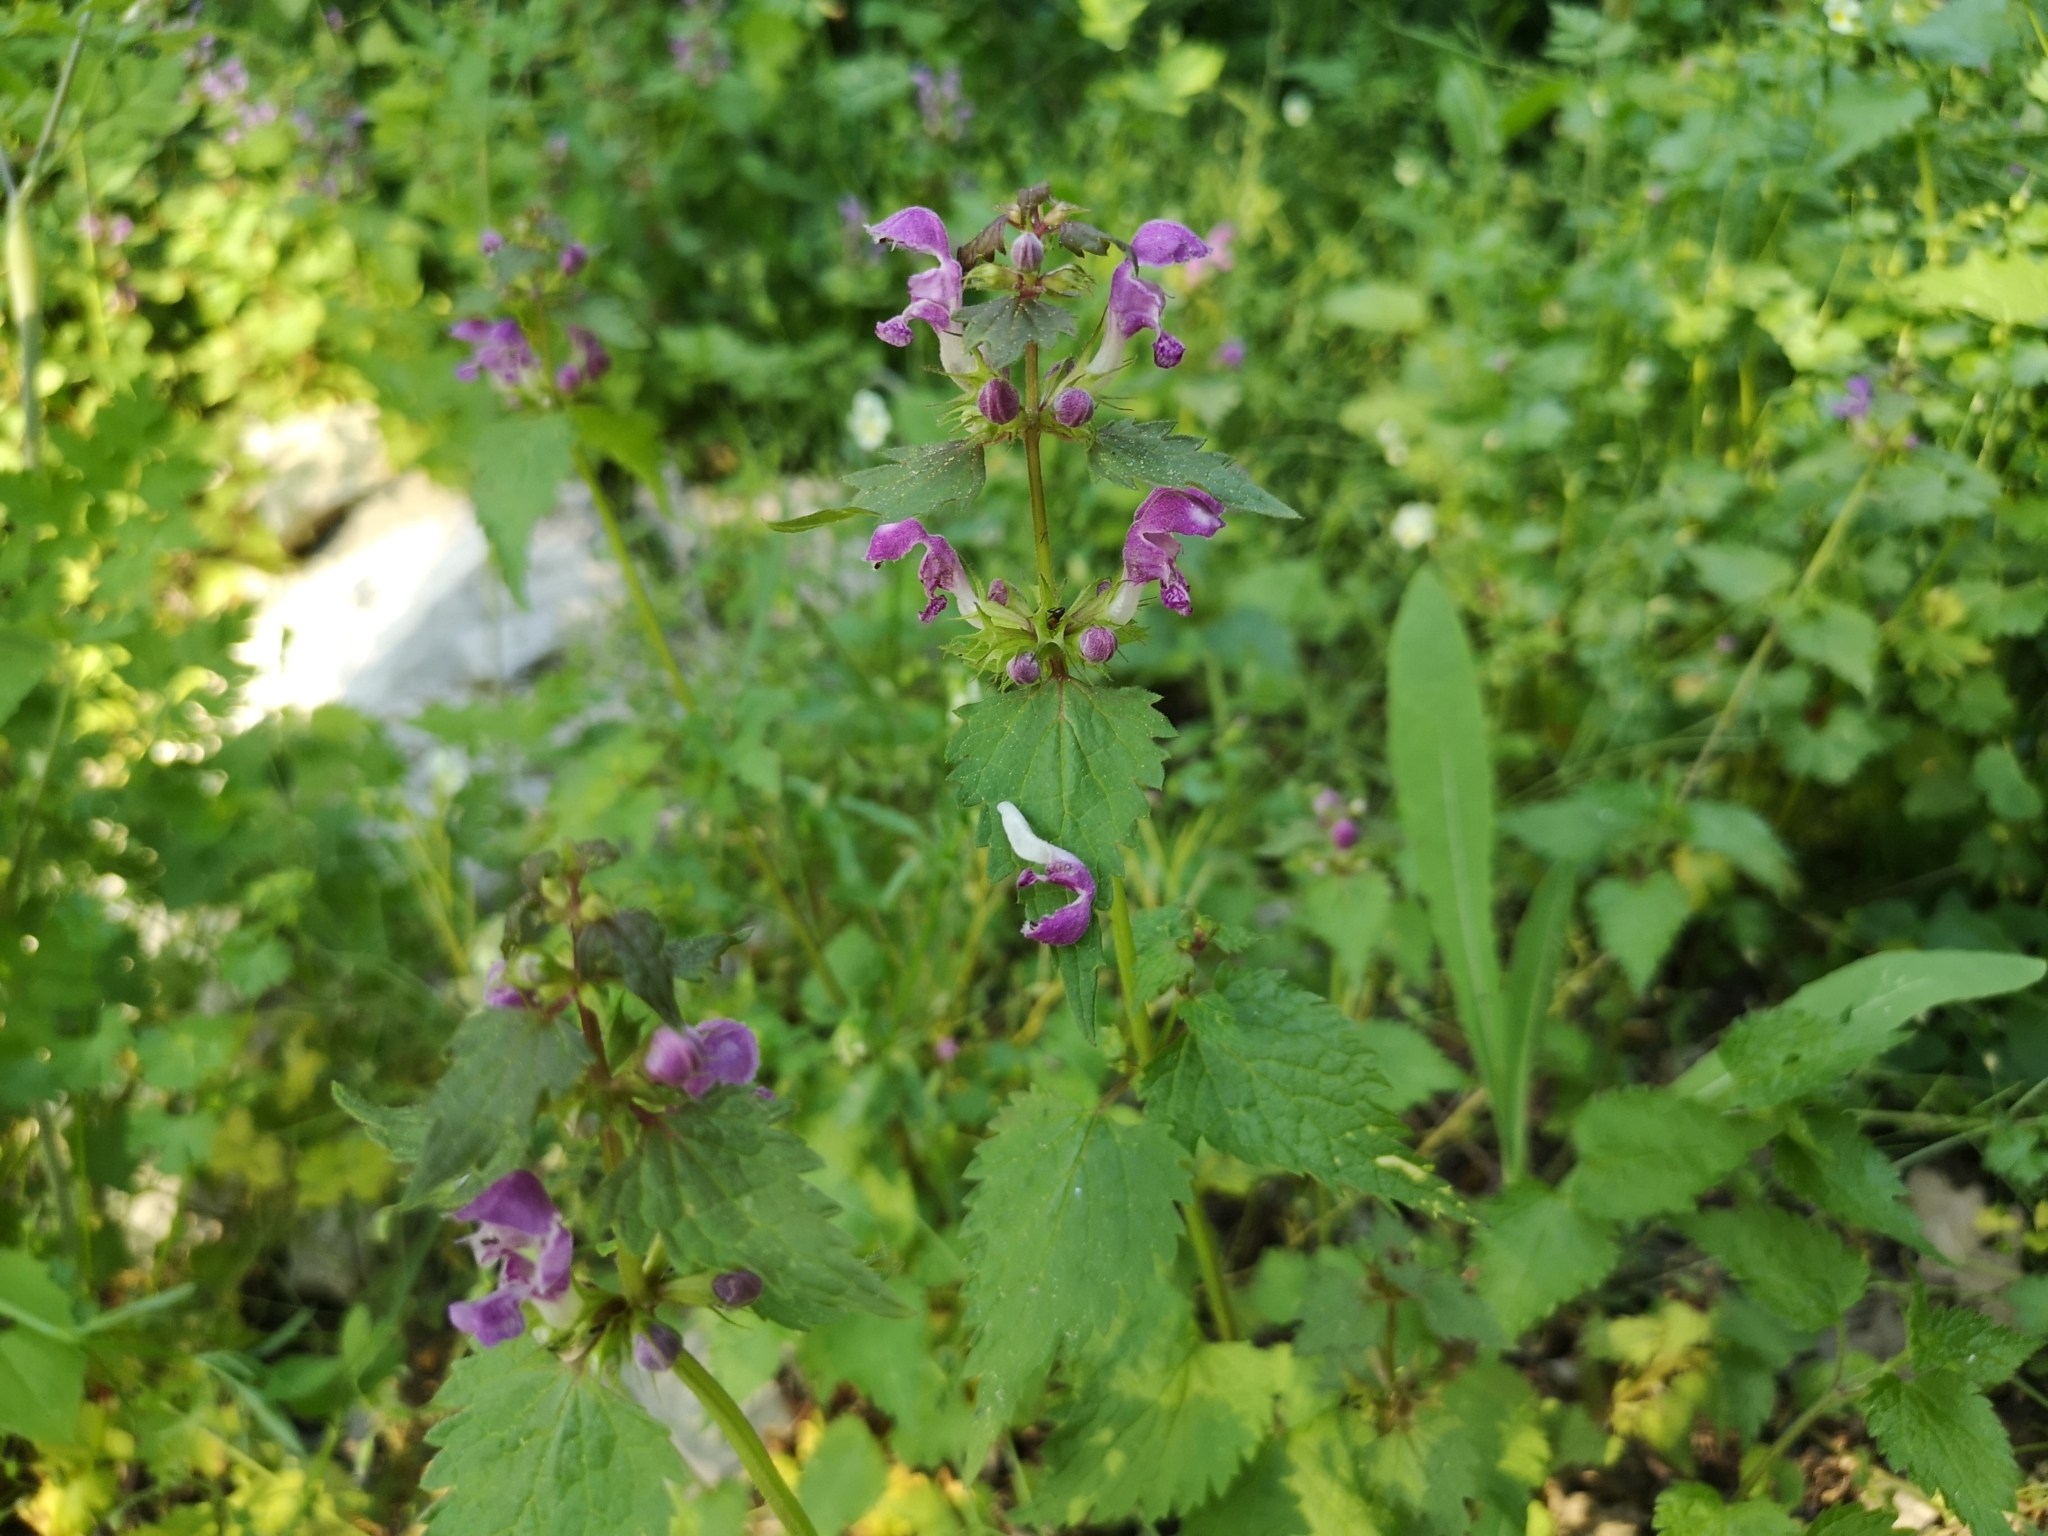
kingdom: Plantae
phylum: Tracheophyta
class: Magnoliopsida
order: Lamiales
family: Lamiaceae
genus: Lamium
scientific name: Lamium maculatum
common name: Spotted dead-nettle
